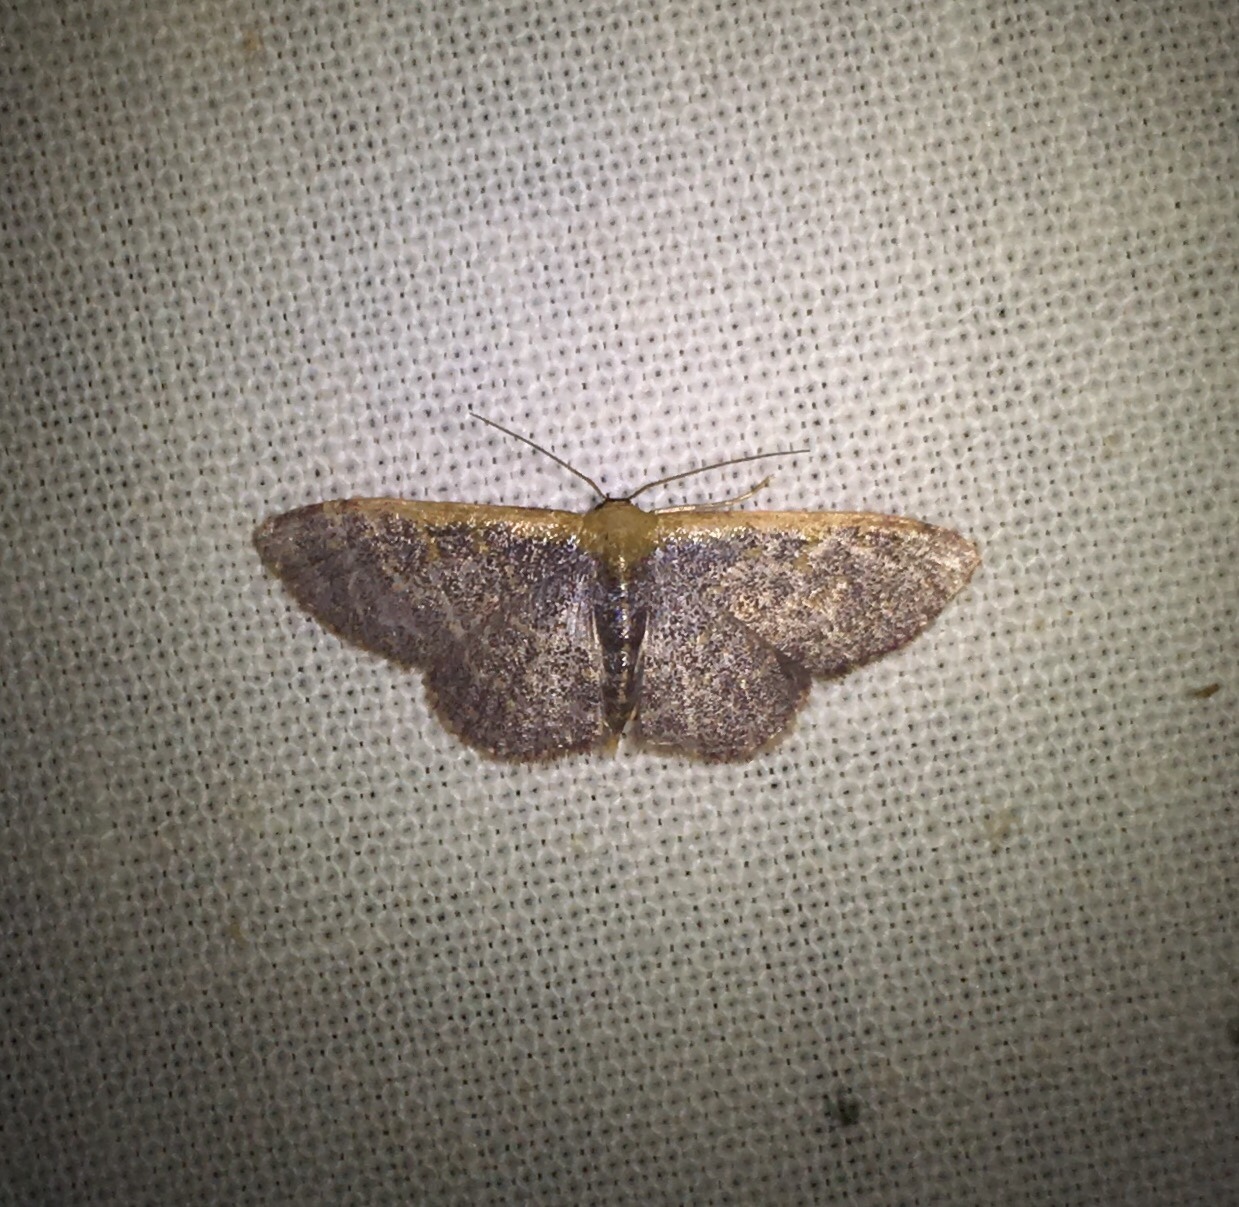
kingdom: Animalia
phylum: Arthropoda
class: Insecta
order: Lepidoptera
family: Geometridae
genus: Leptostales
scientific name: Leptostales pannaria
